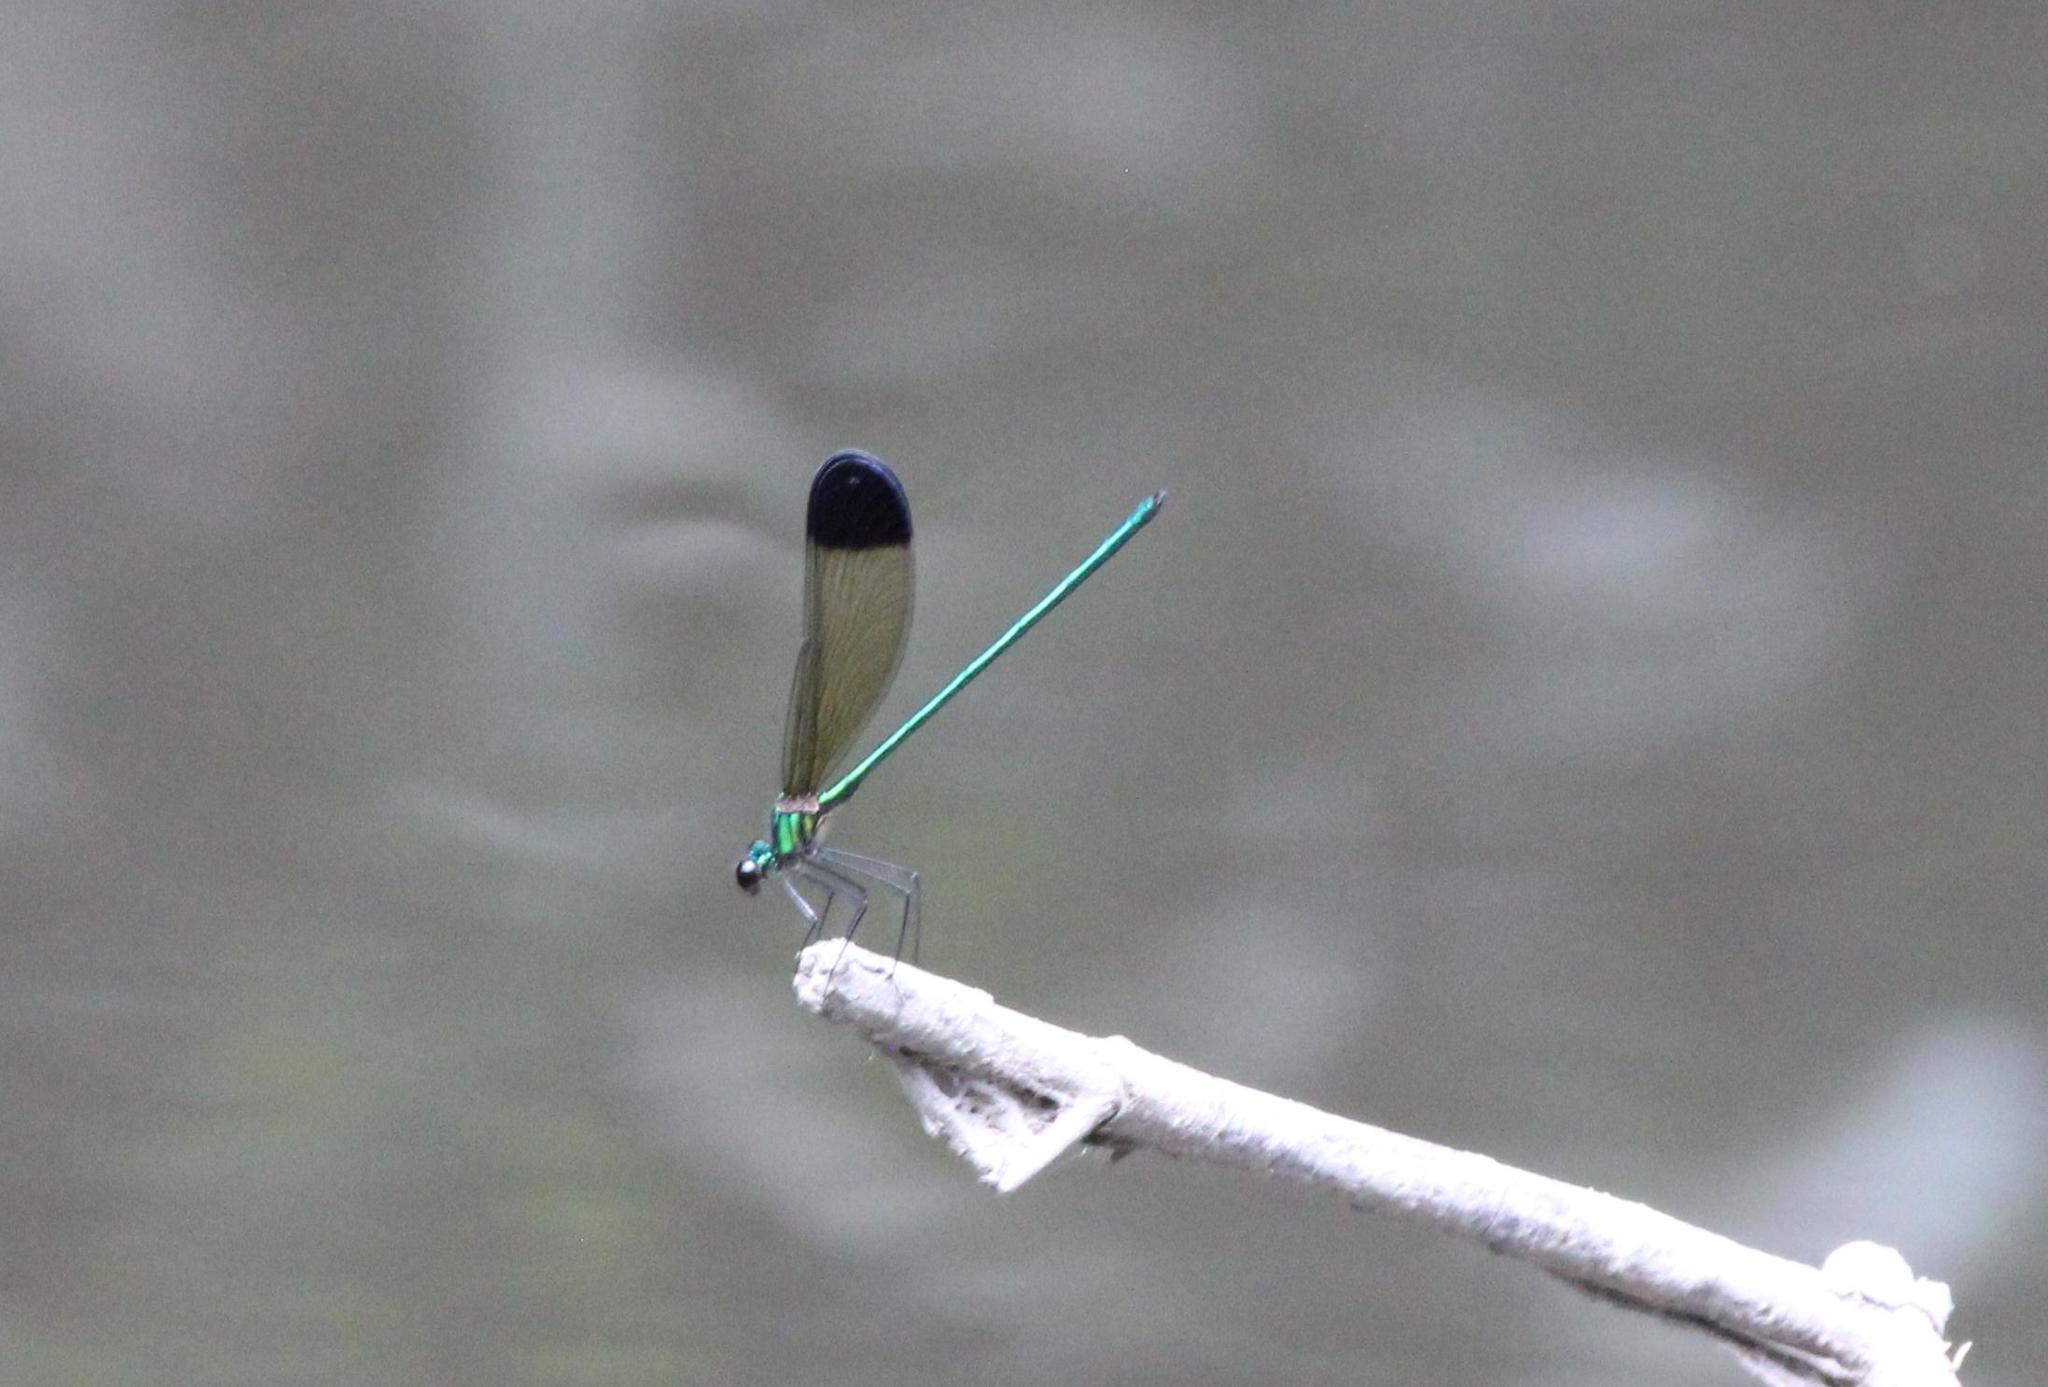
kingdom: Animalia
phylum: Arthropoda
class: Insecta
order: Odonata
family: Calopterygidae
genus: Calopteryx
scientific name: Calopteryx dimidiata
